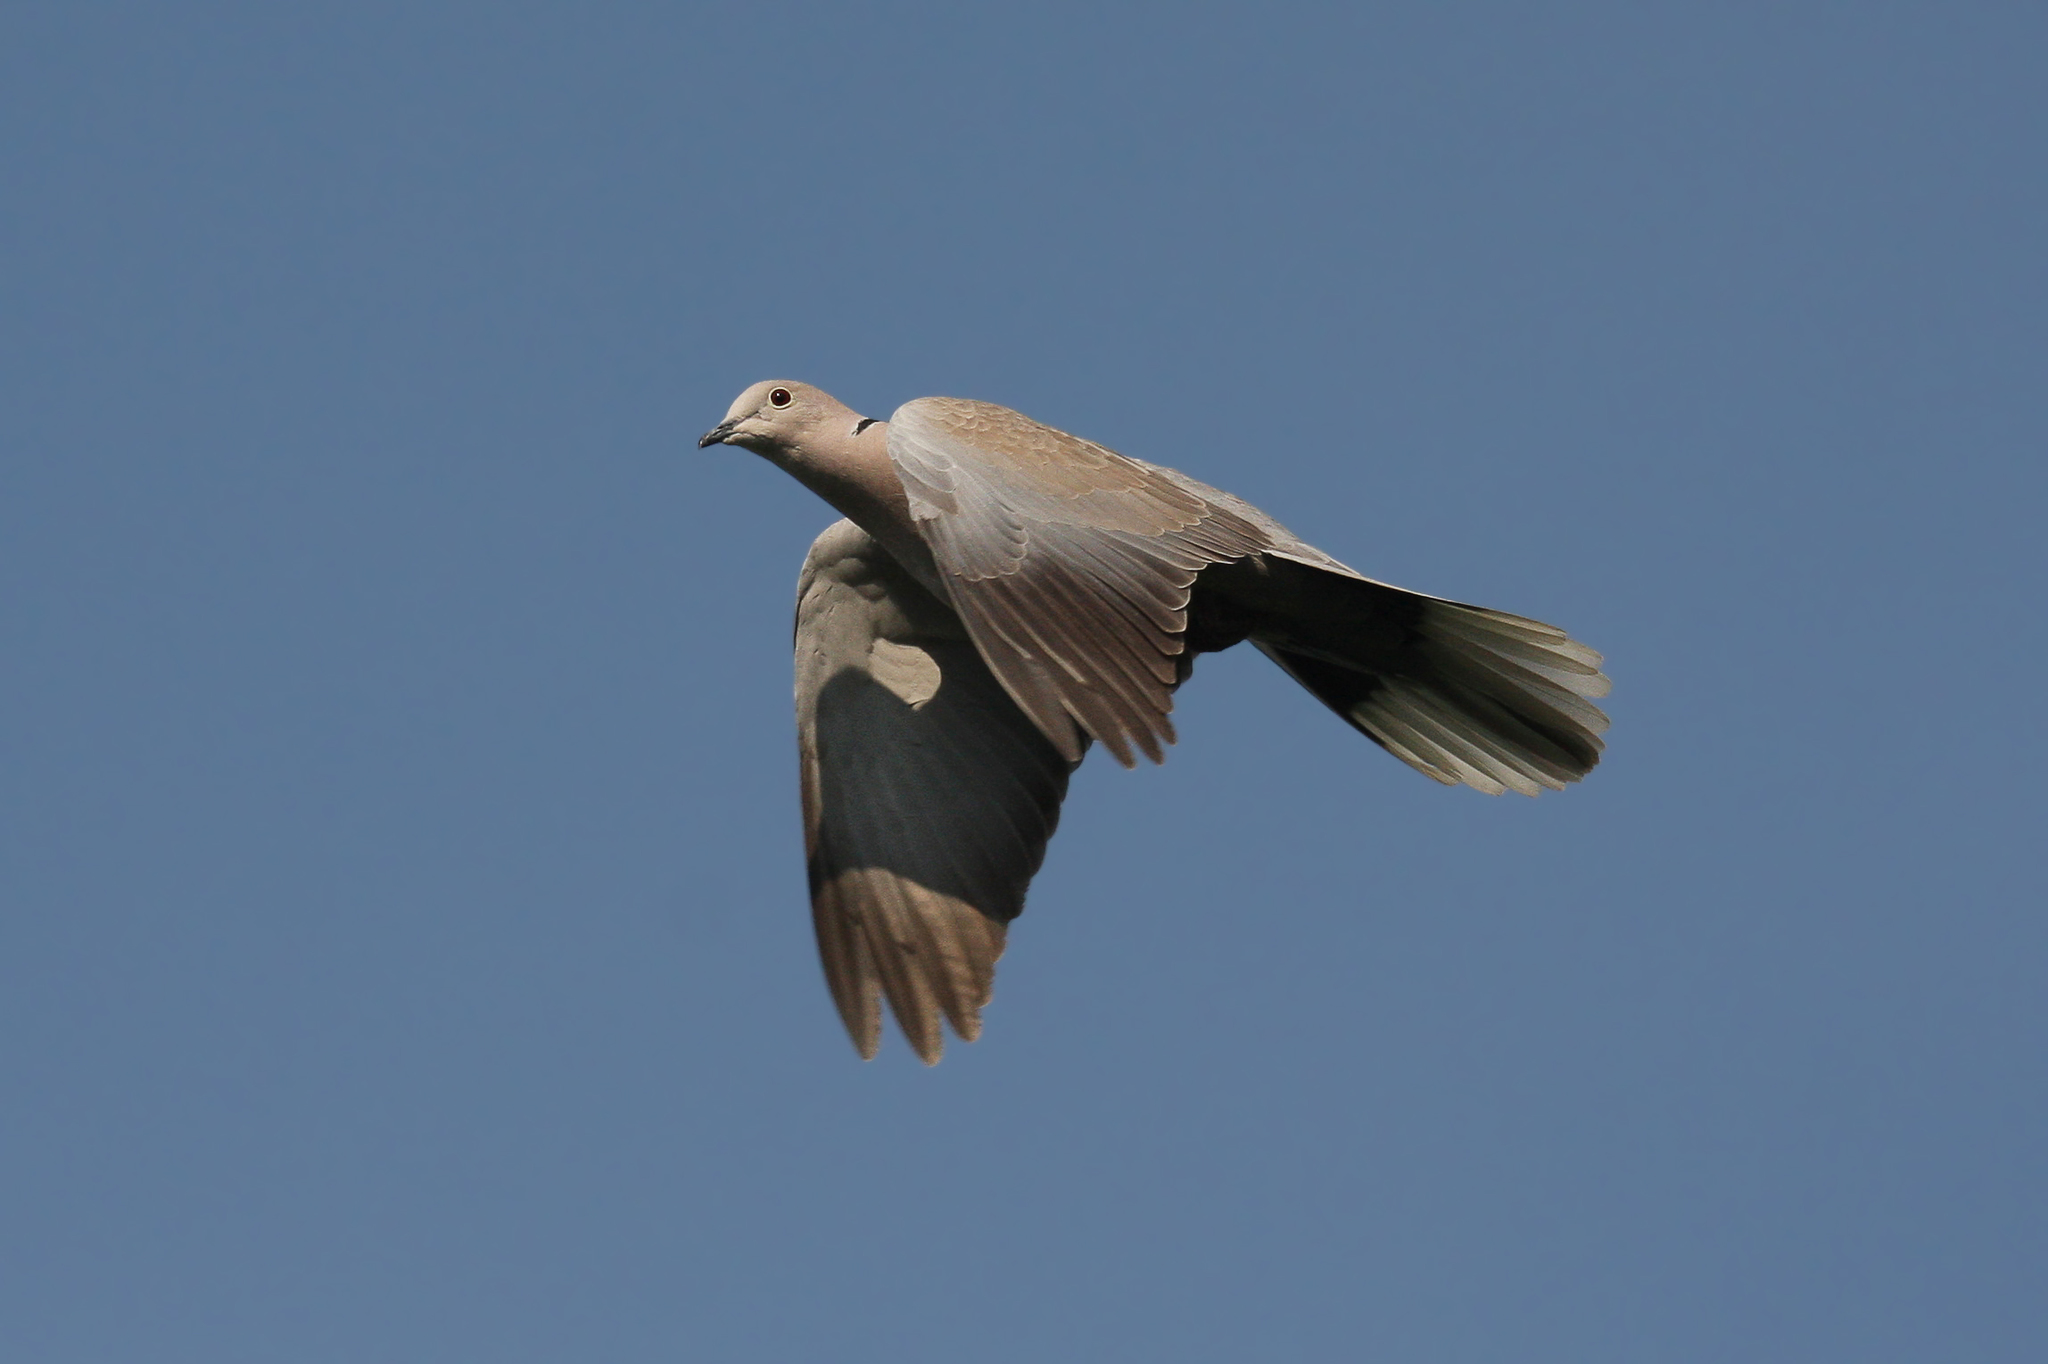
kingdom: Animalia
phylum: Chordata
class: Aves
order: Columbiformes
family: Columbidae
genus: Streptopelia
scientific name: Streptopelia decaocto
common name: Eurasian collared dove
